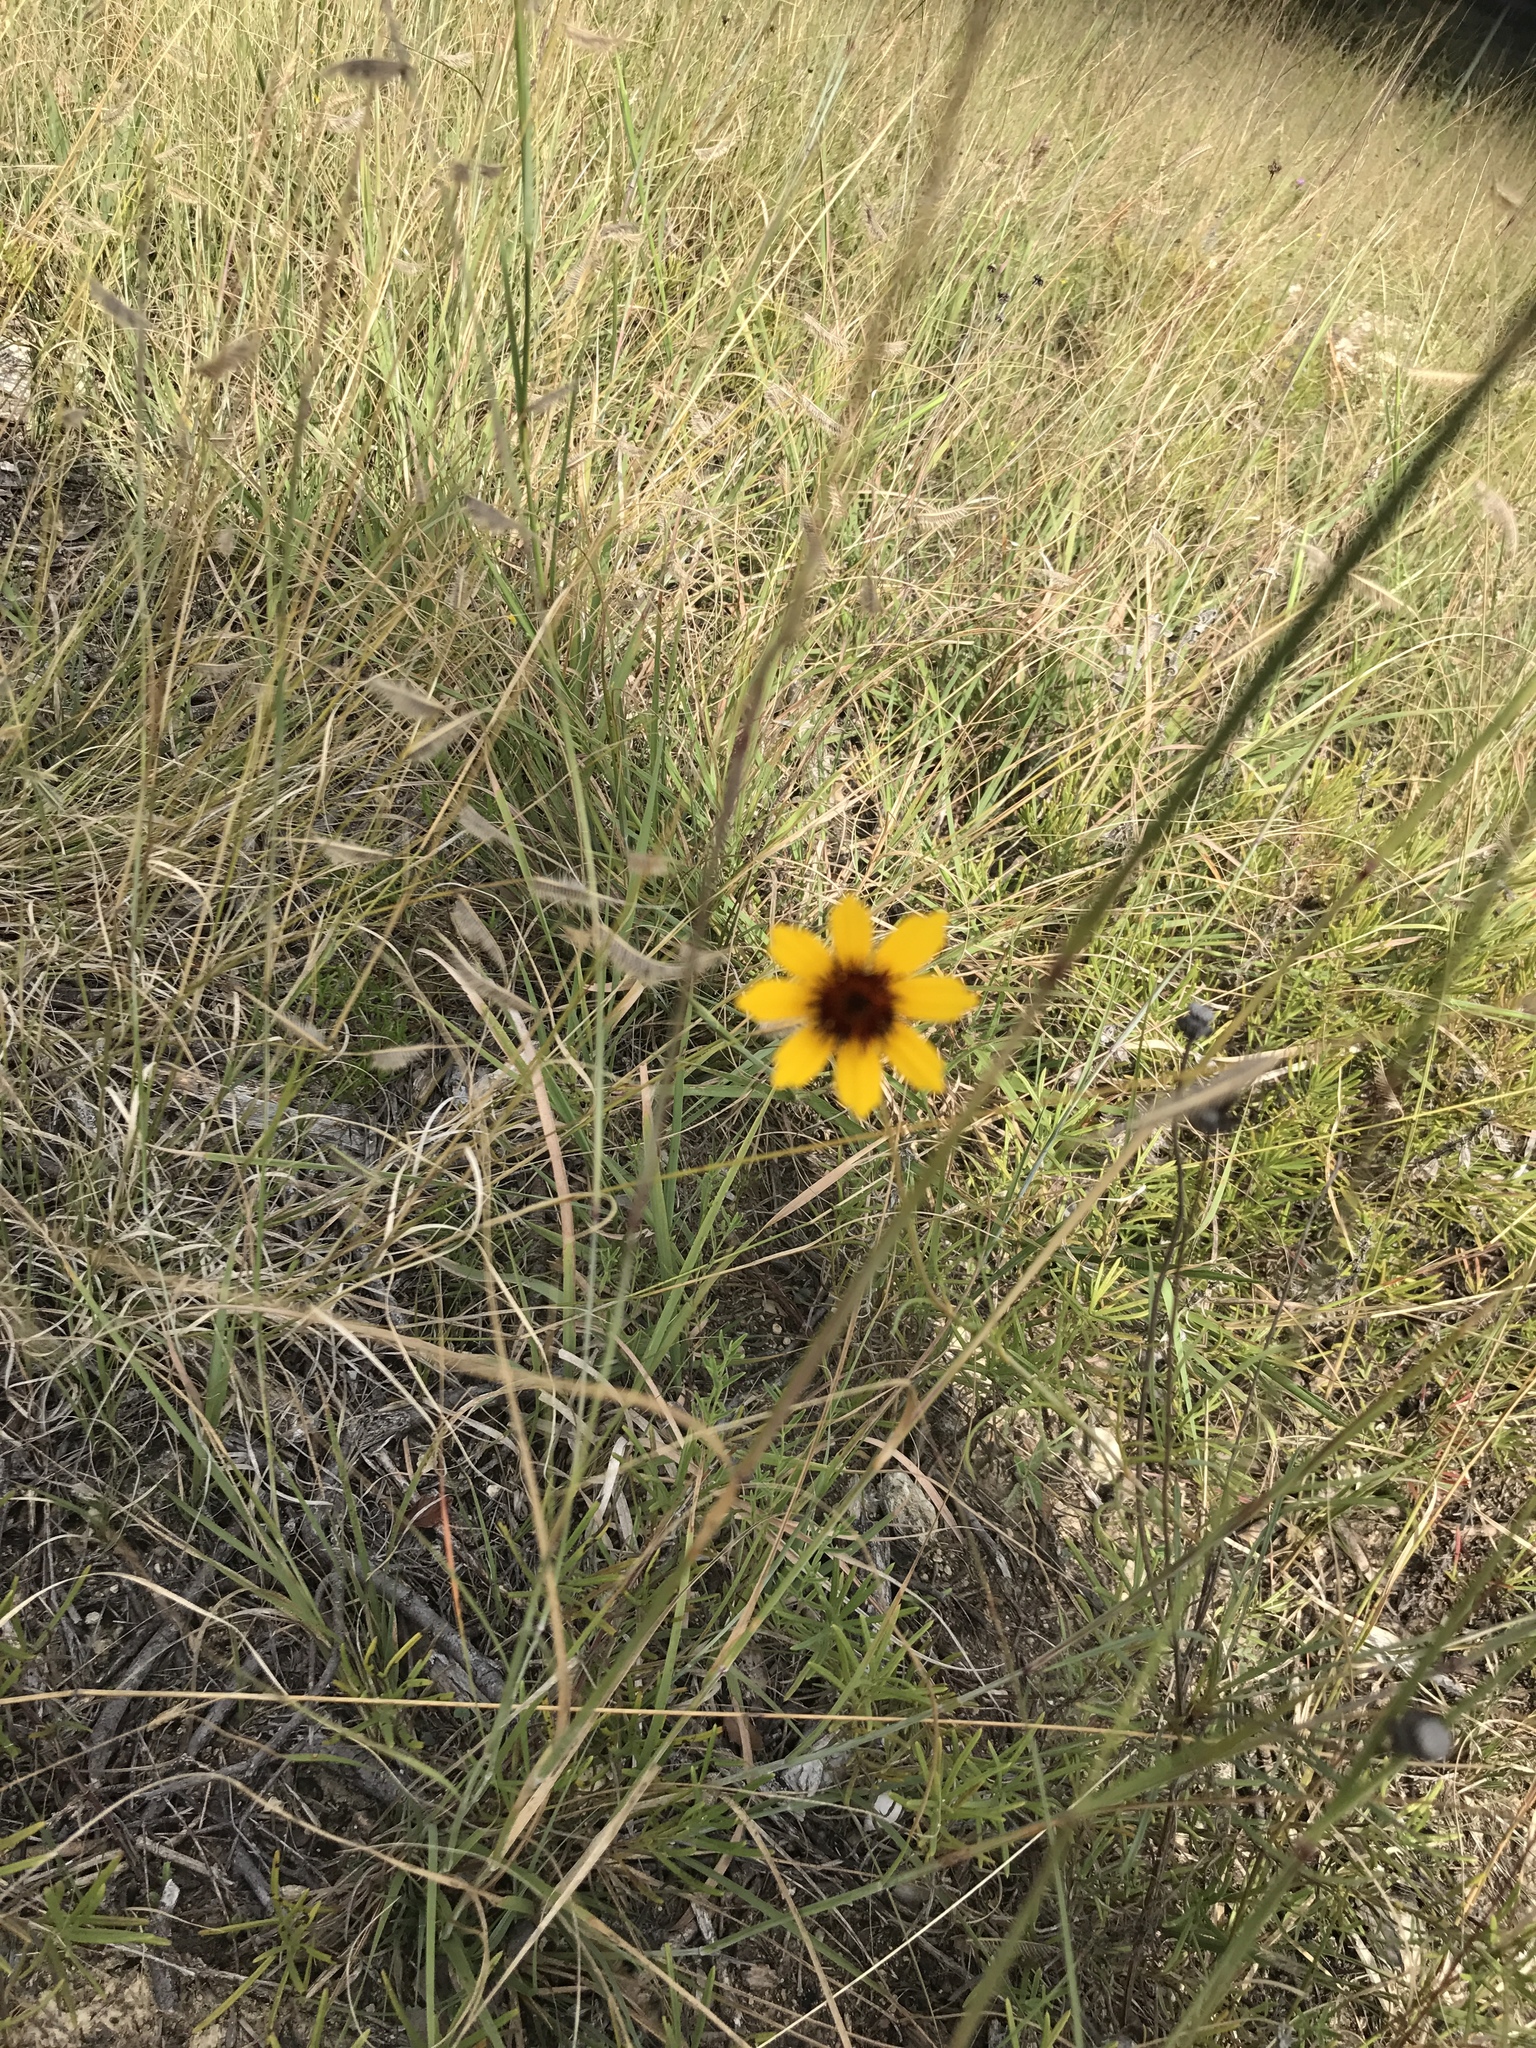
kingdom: Plantae
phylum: Tracheophyta
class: Magnoliopsida
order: Asterales
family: Asteraceae
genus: Thelesperma
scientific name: Thelesperma filifolium
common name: Stiff greenthread
